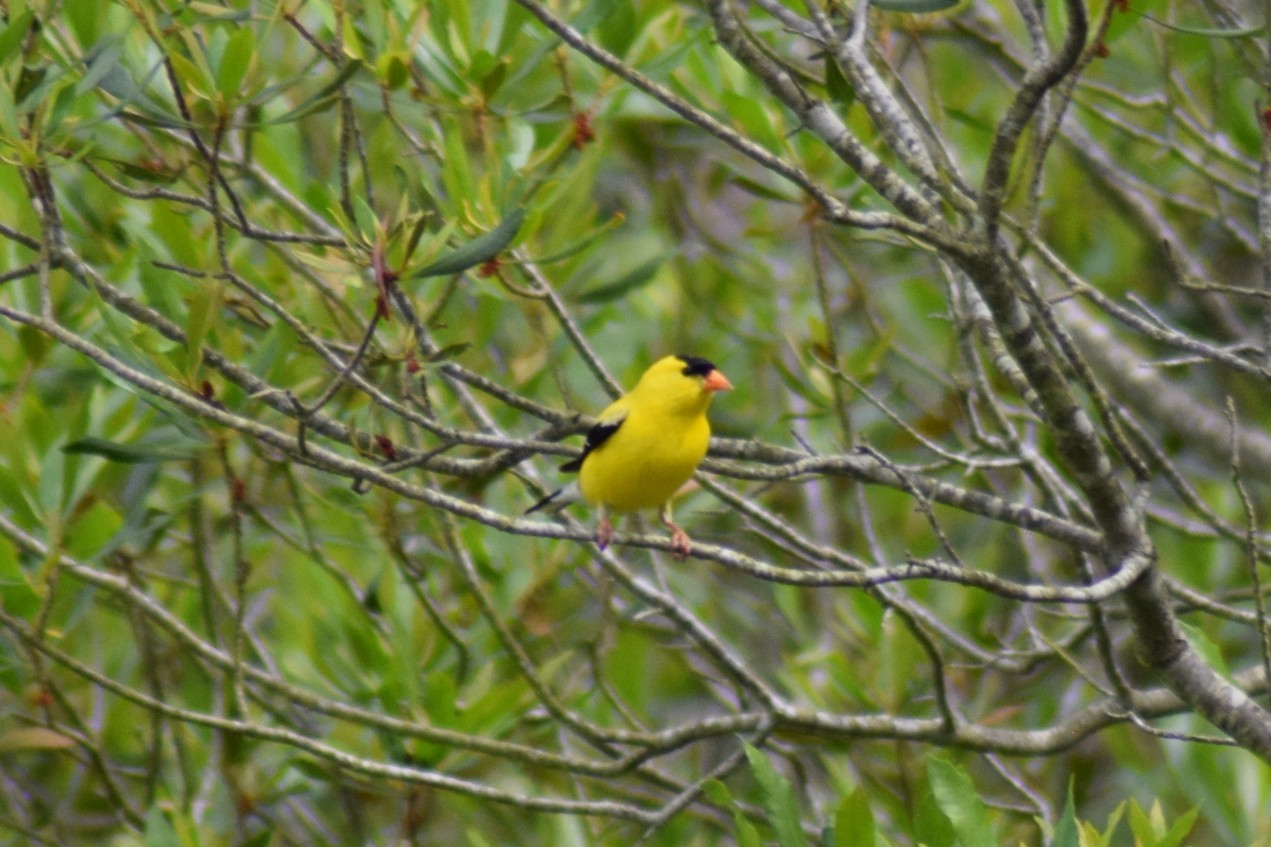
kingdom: Animalia
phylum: Chordata
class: Aves
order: Passeriformes
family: Fringillidae
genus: Spinus
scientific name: Spinus tristis
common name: American goldfinch
